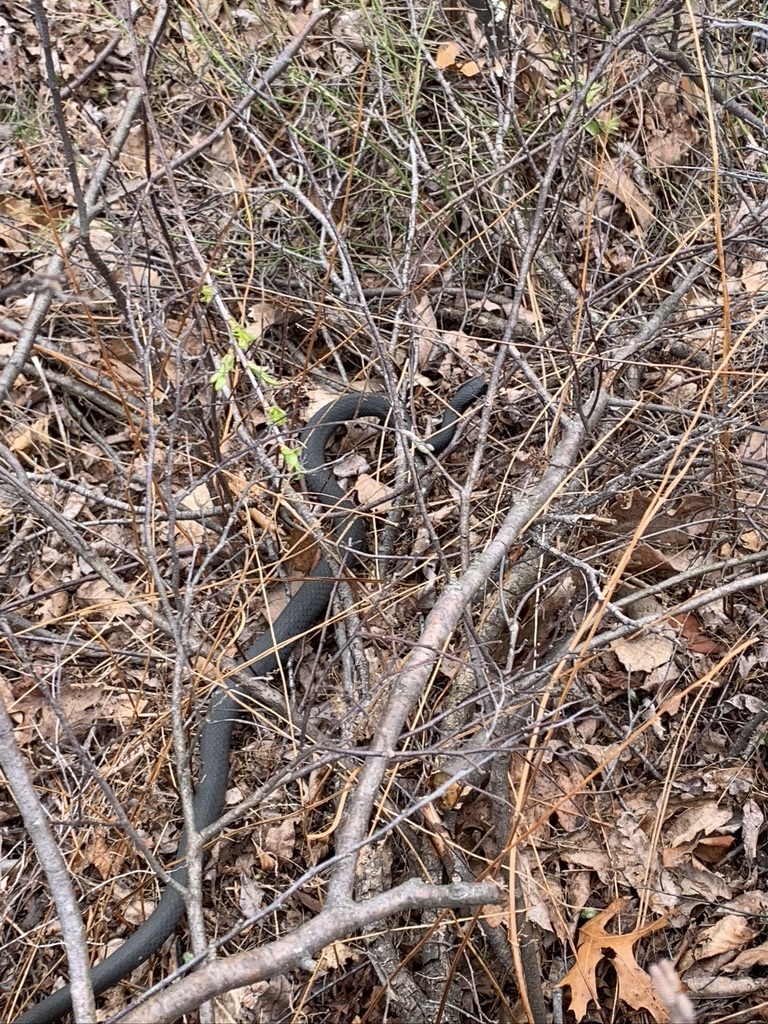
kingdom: Animalia
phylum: Chordata
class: Squamata
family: Colubridae
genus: Coluber
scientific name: Coluber constrictor
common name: Eastern racer
